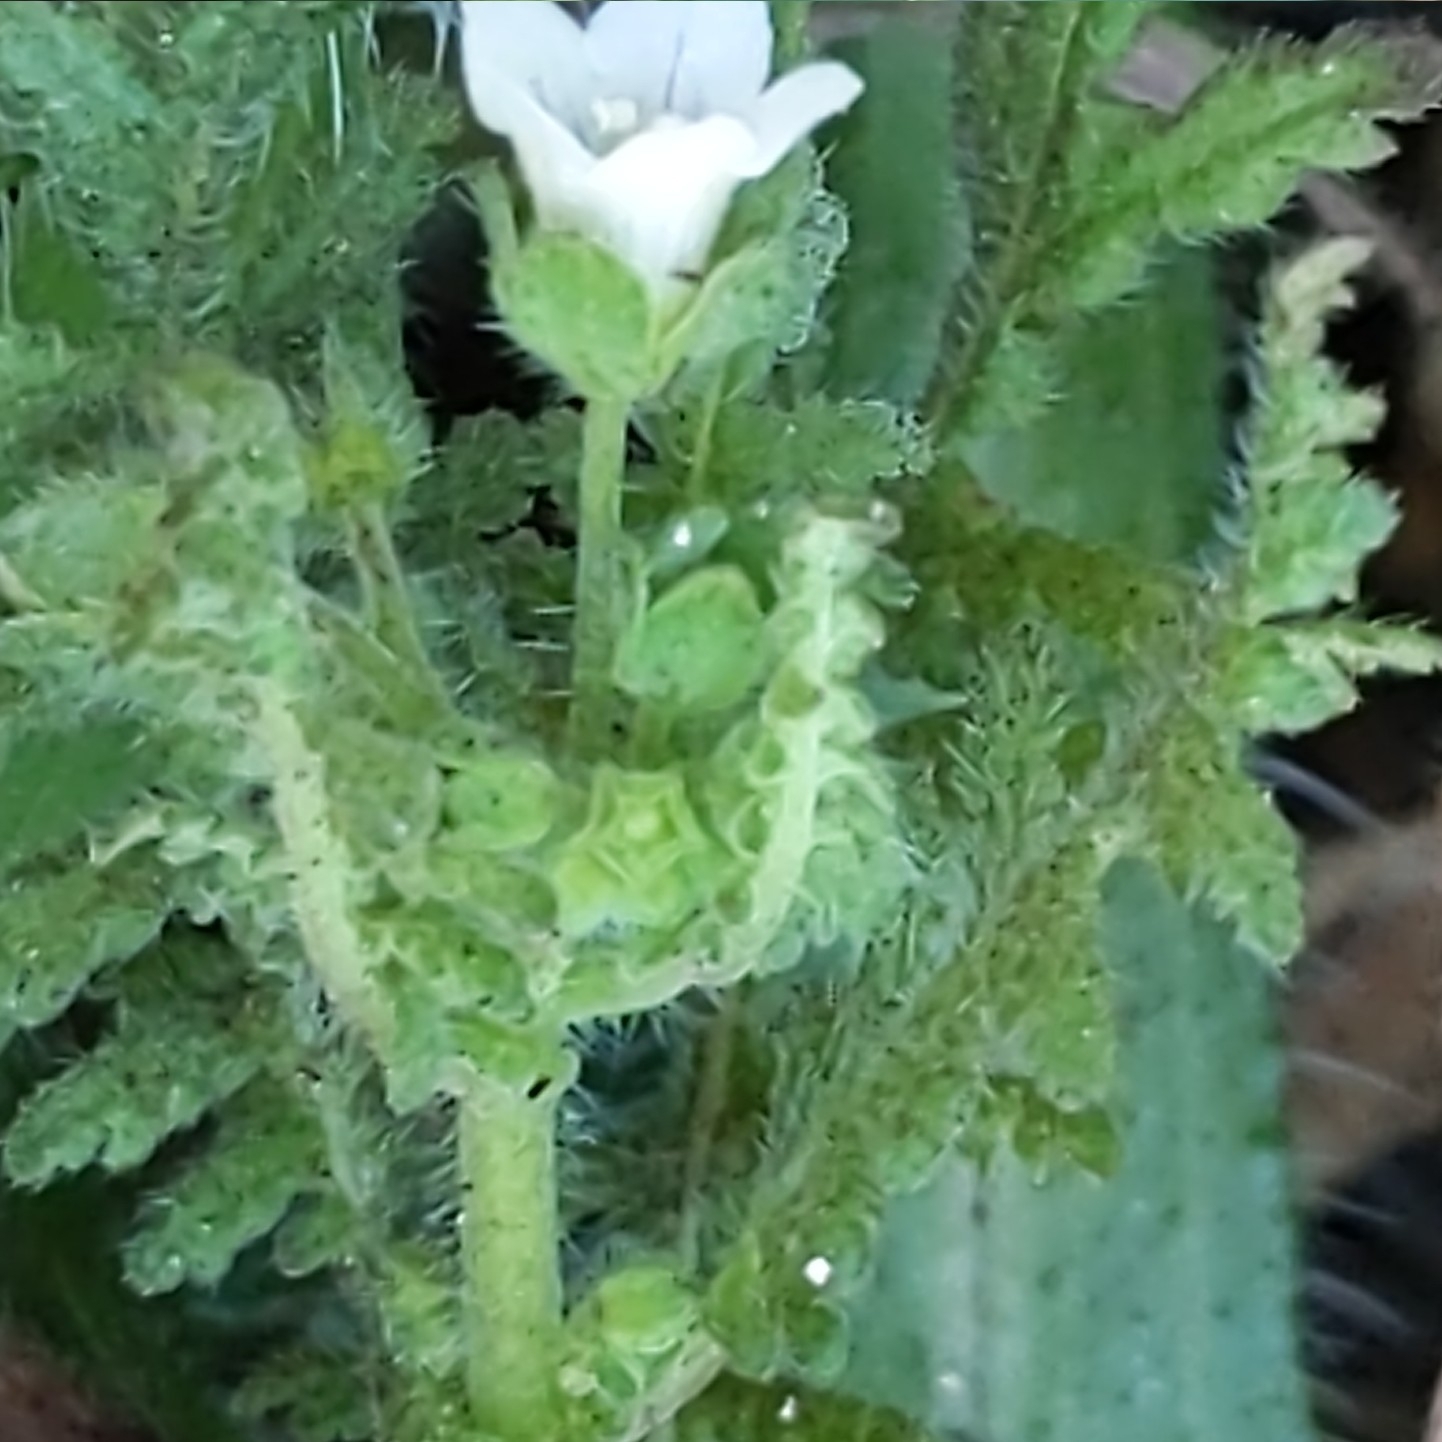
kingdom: Plantae
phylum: Tracheophyta
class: Magnoliopsida
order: Boraginales
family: Hydrophyllaceae
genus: Eucrypta
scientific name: Eucrypta chrysanthemifolia
